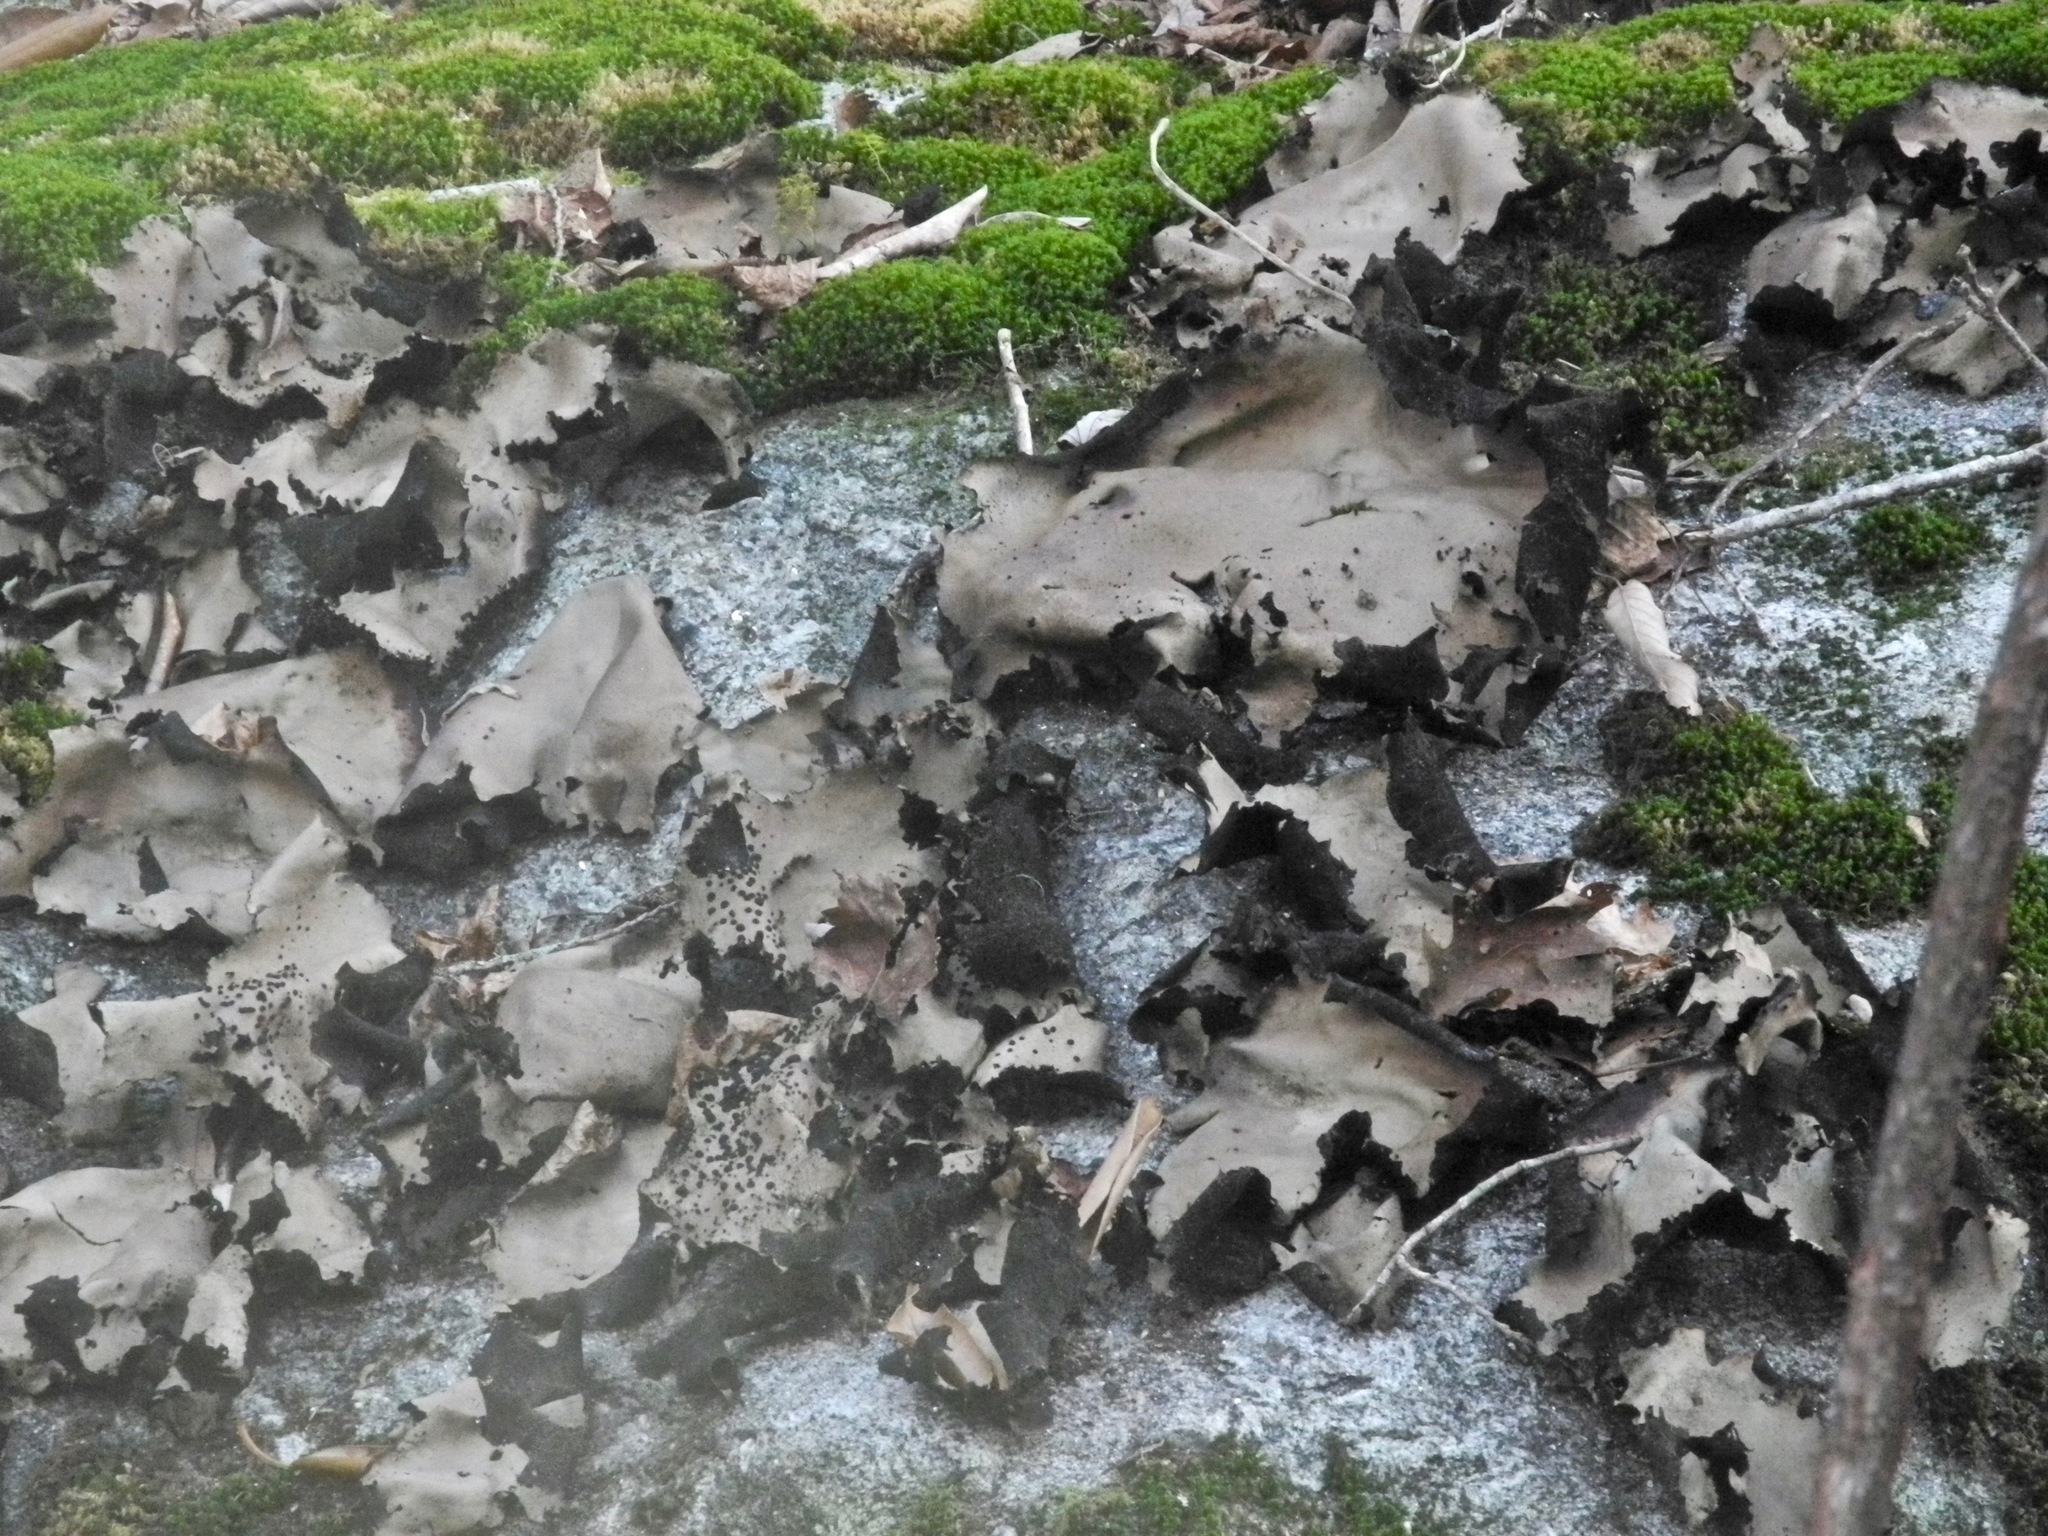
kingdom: Fungi
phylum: Ascomycota
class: Lecanoromycetes
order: Umbilicariales
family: Umbilicariaceae
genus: Umbilicaria
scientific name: Umbilicaria mammulata
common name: Smooth rock tripe
